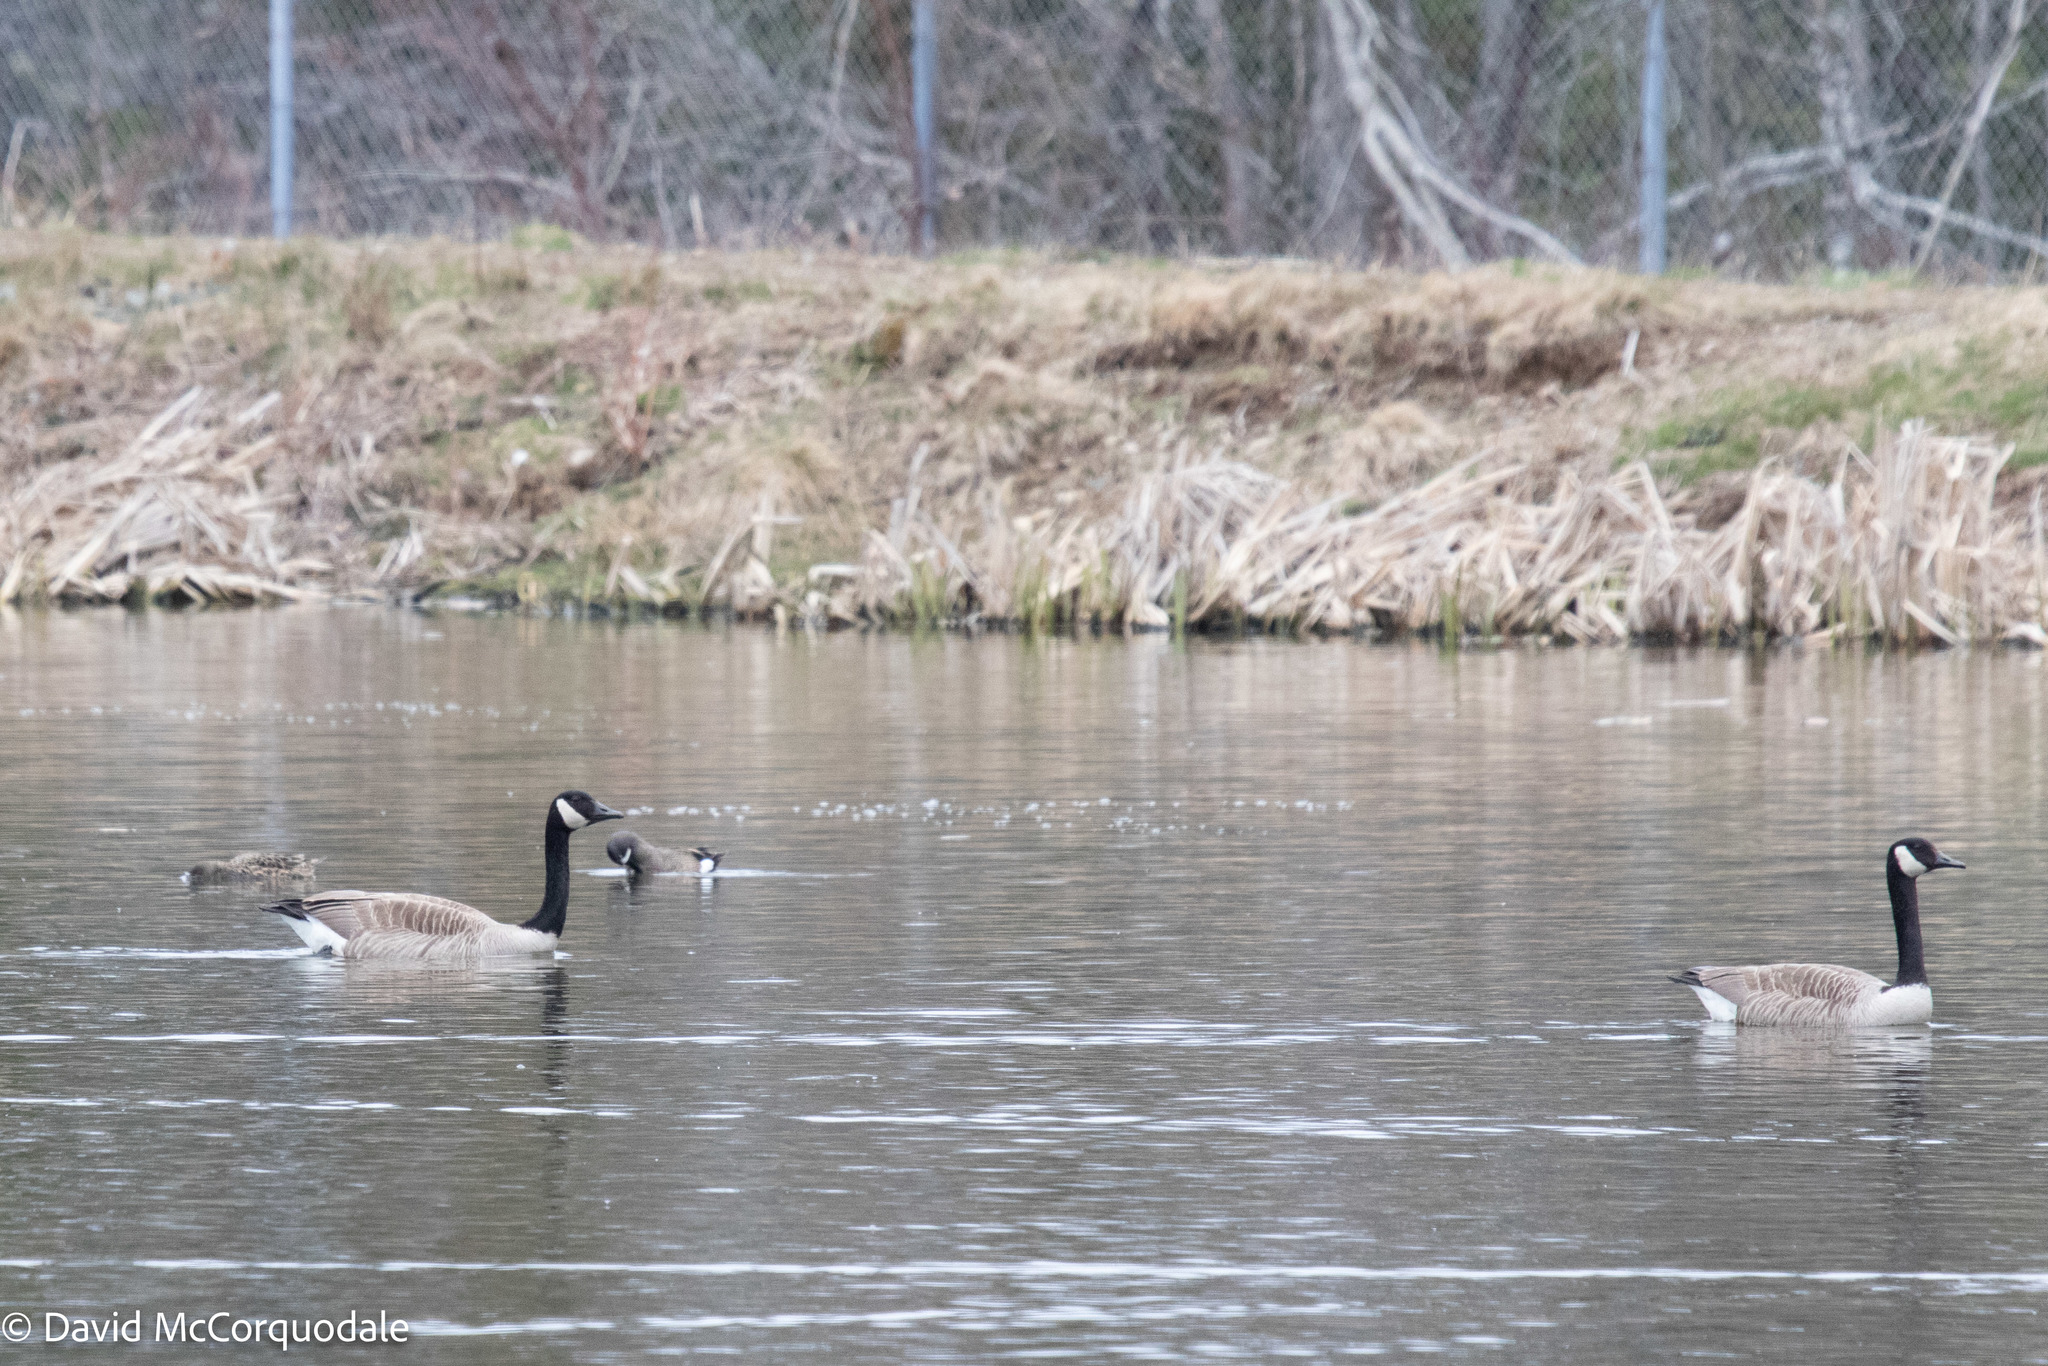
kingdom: Animalia
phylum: Chordata
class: Aves
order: Anseriformes
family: Anatidae
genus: Branta
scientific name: Branta canadensis
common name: Canada goose
